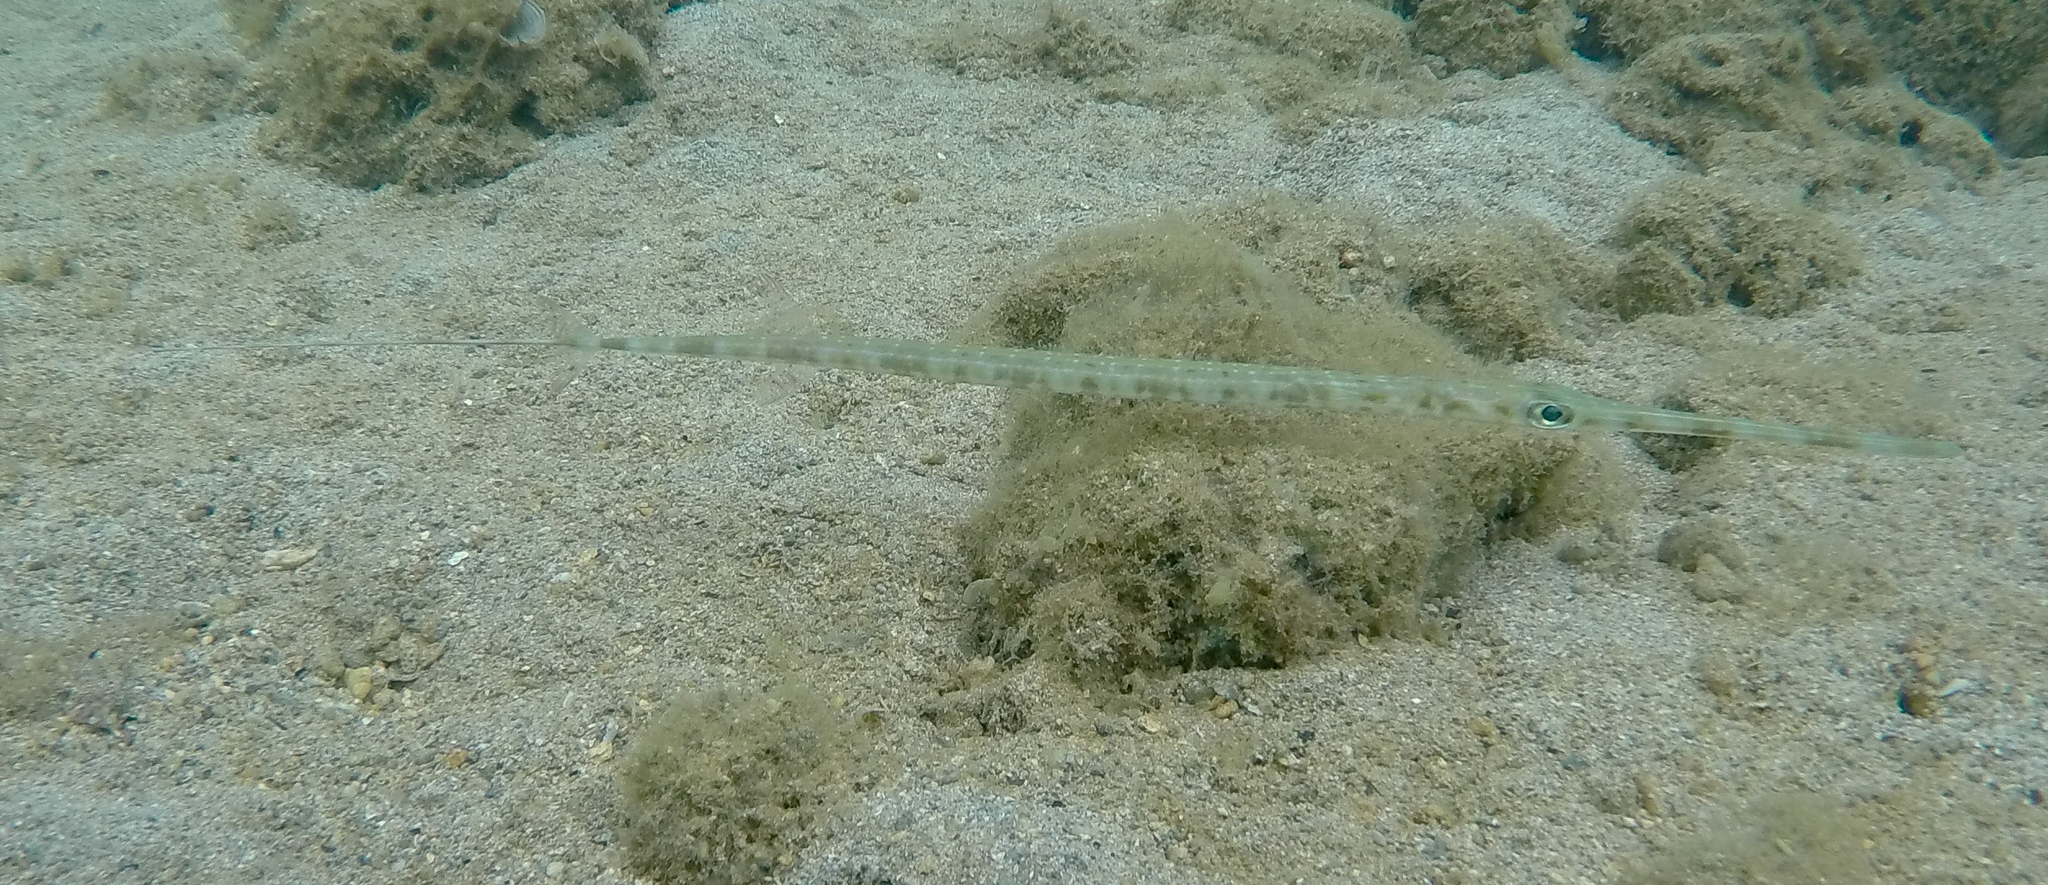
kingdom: Animalia
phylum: Chordata
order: Syngnathiformes
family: Fistulariidae
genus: Fistularia
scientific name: Fistularia commersonii
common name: Bluespotted cornetfish
